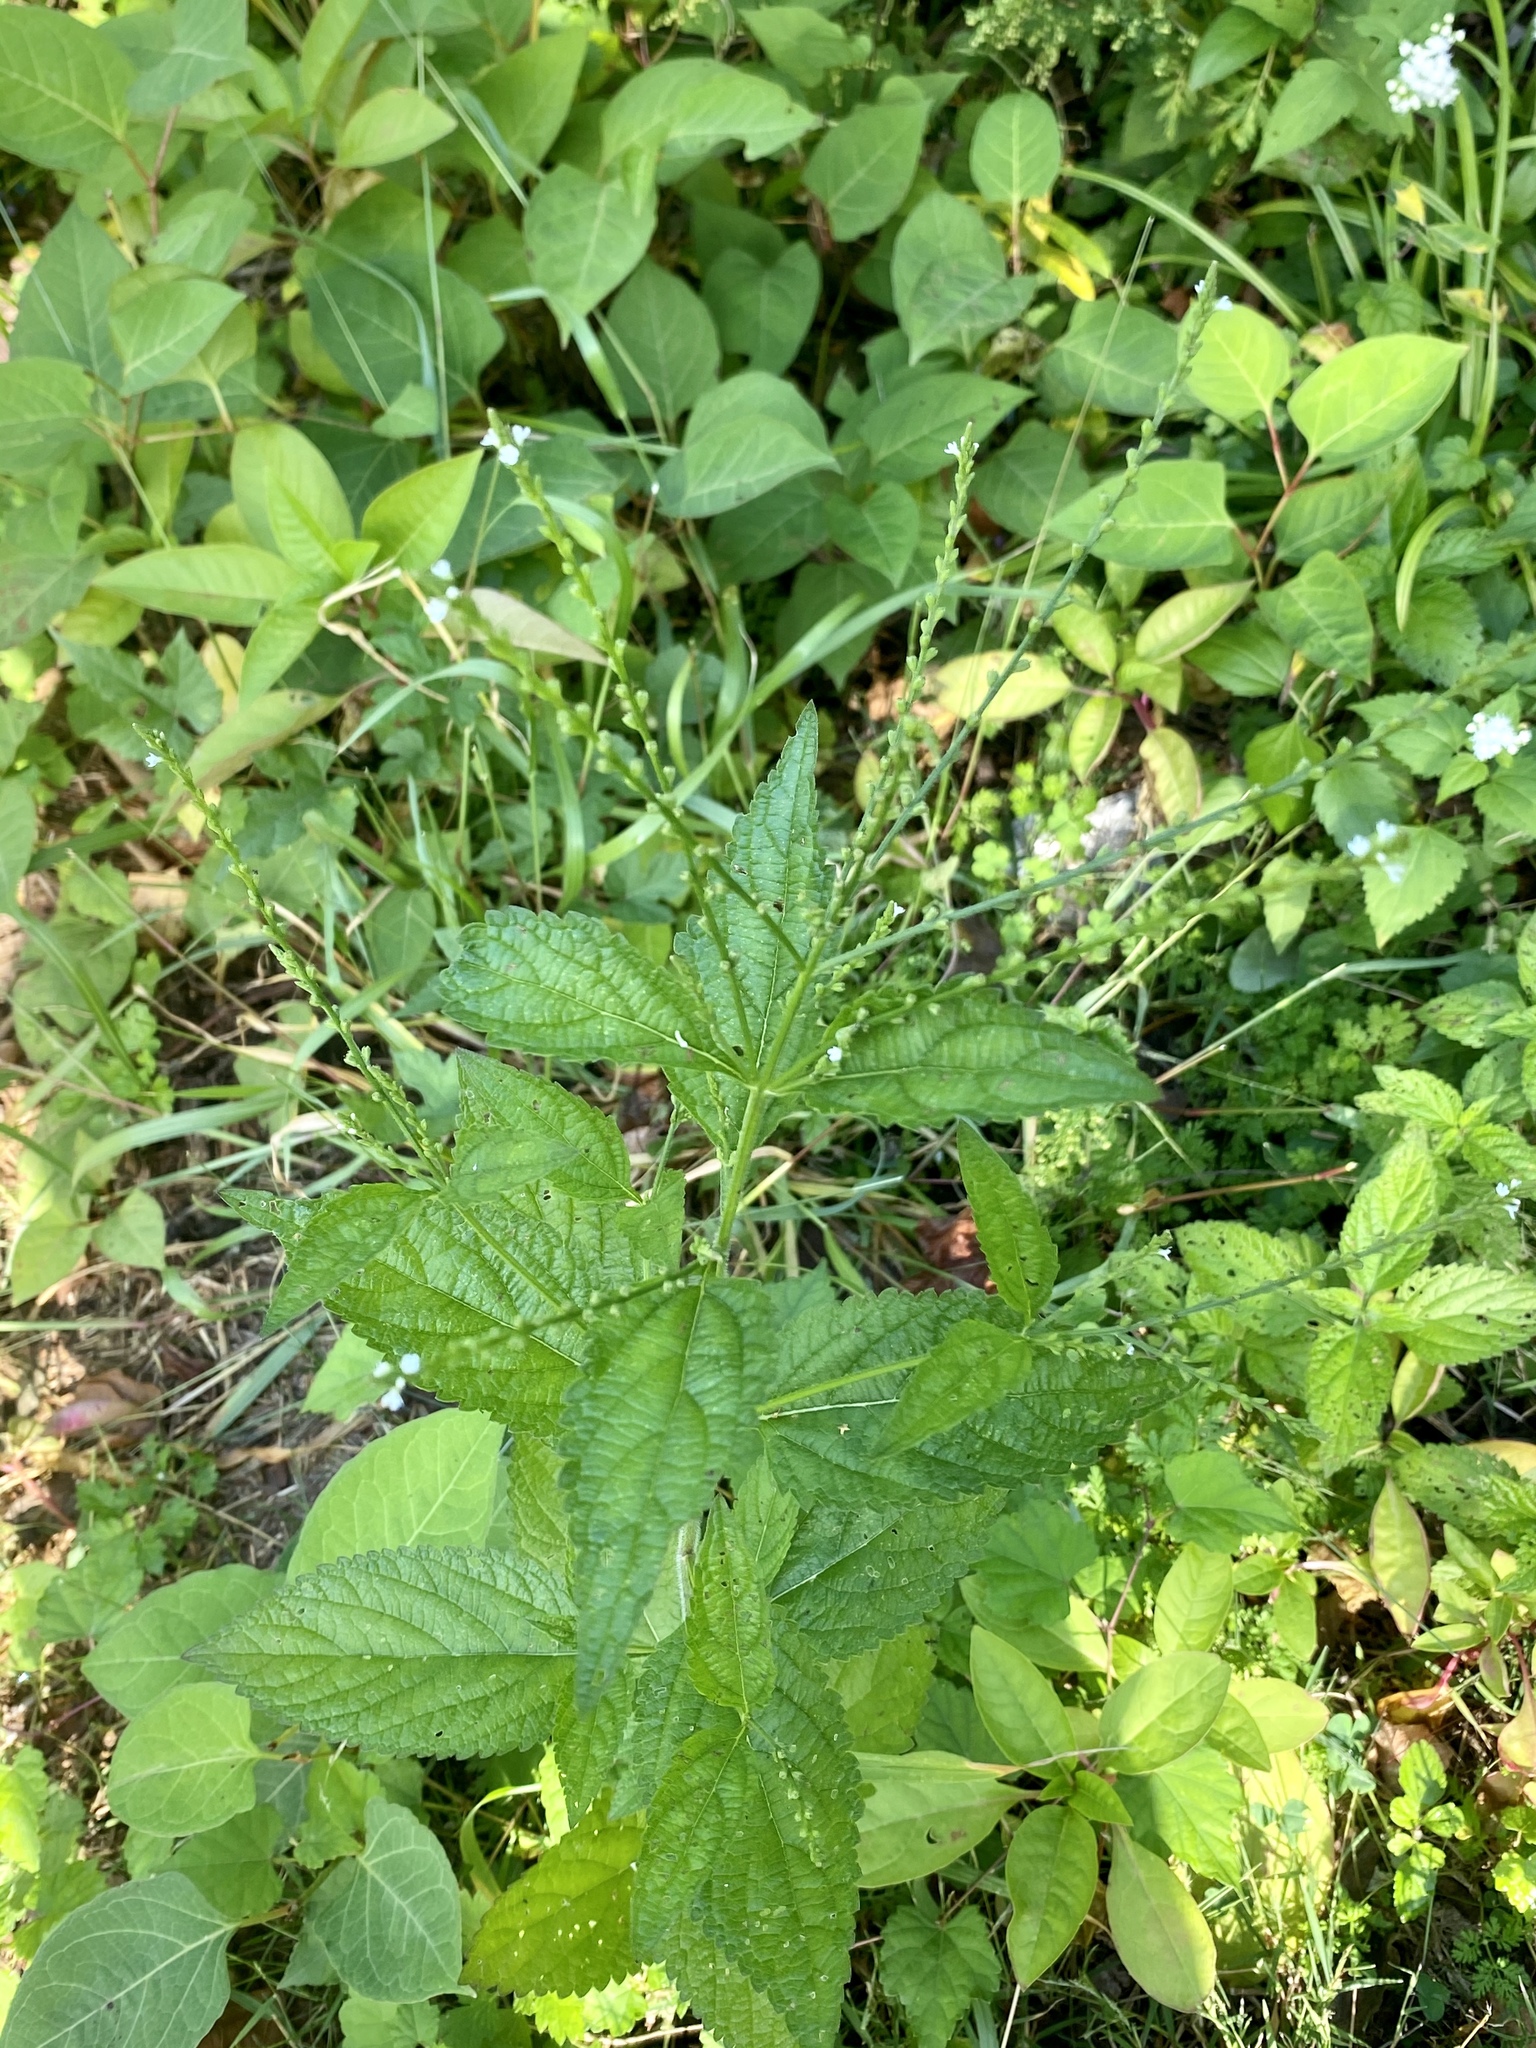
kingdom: Plantae
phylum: Tracheophyta
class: Magnoliopsida
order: Lamiales
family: Verbenaceae
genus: Verbena
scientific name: Verbena urticifolia
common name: Nettle-leaved vervain
